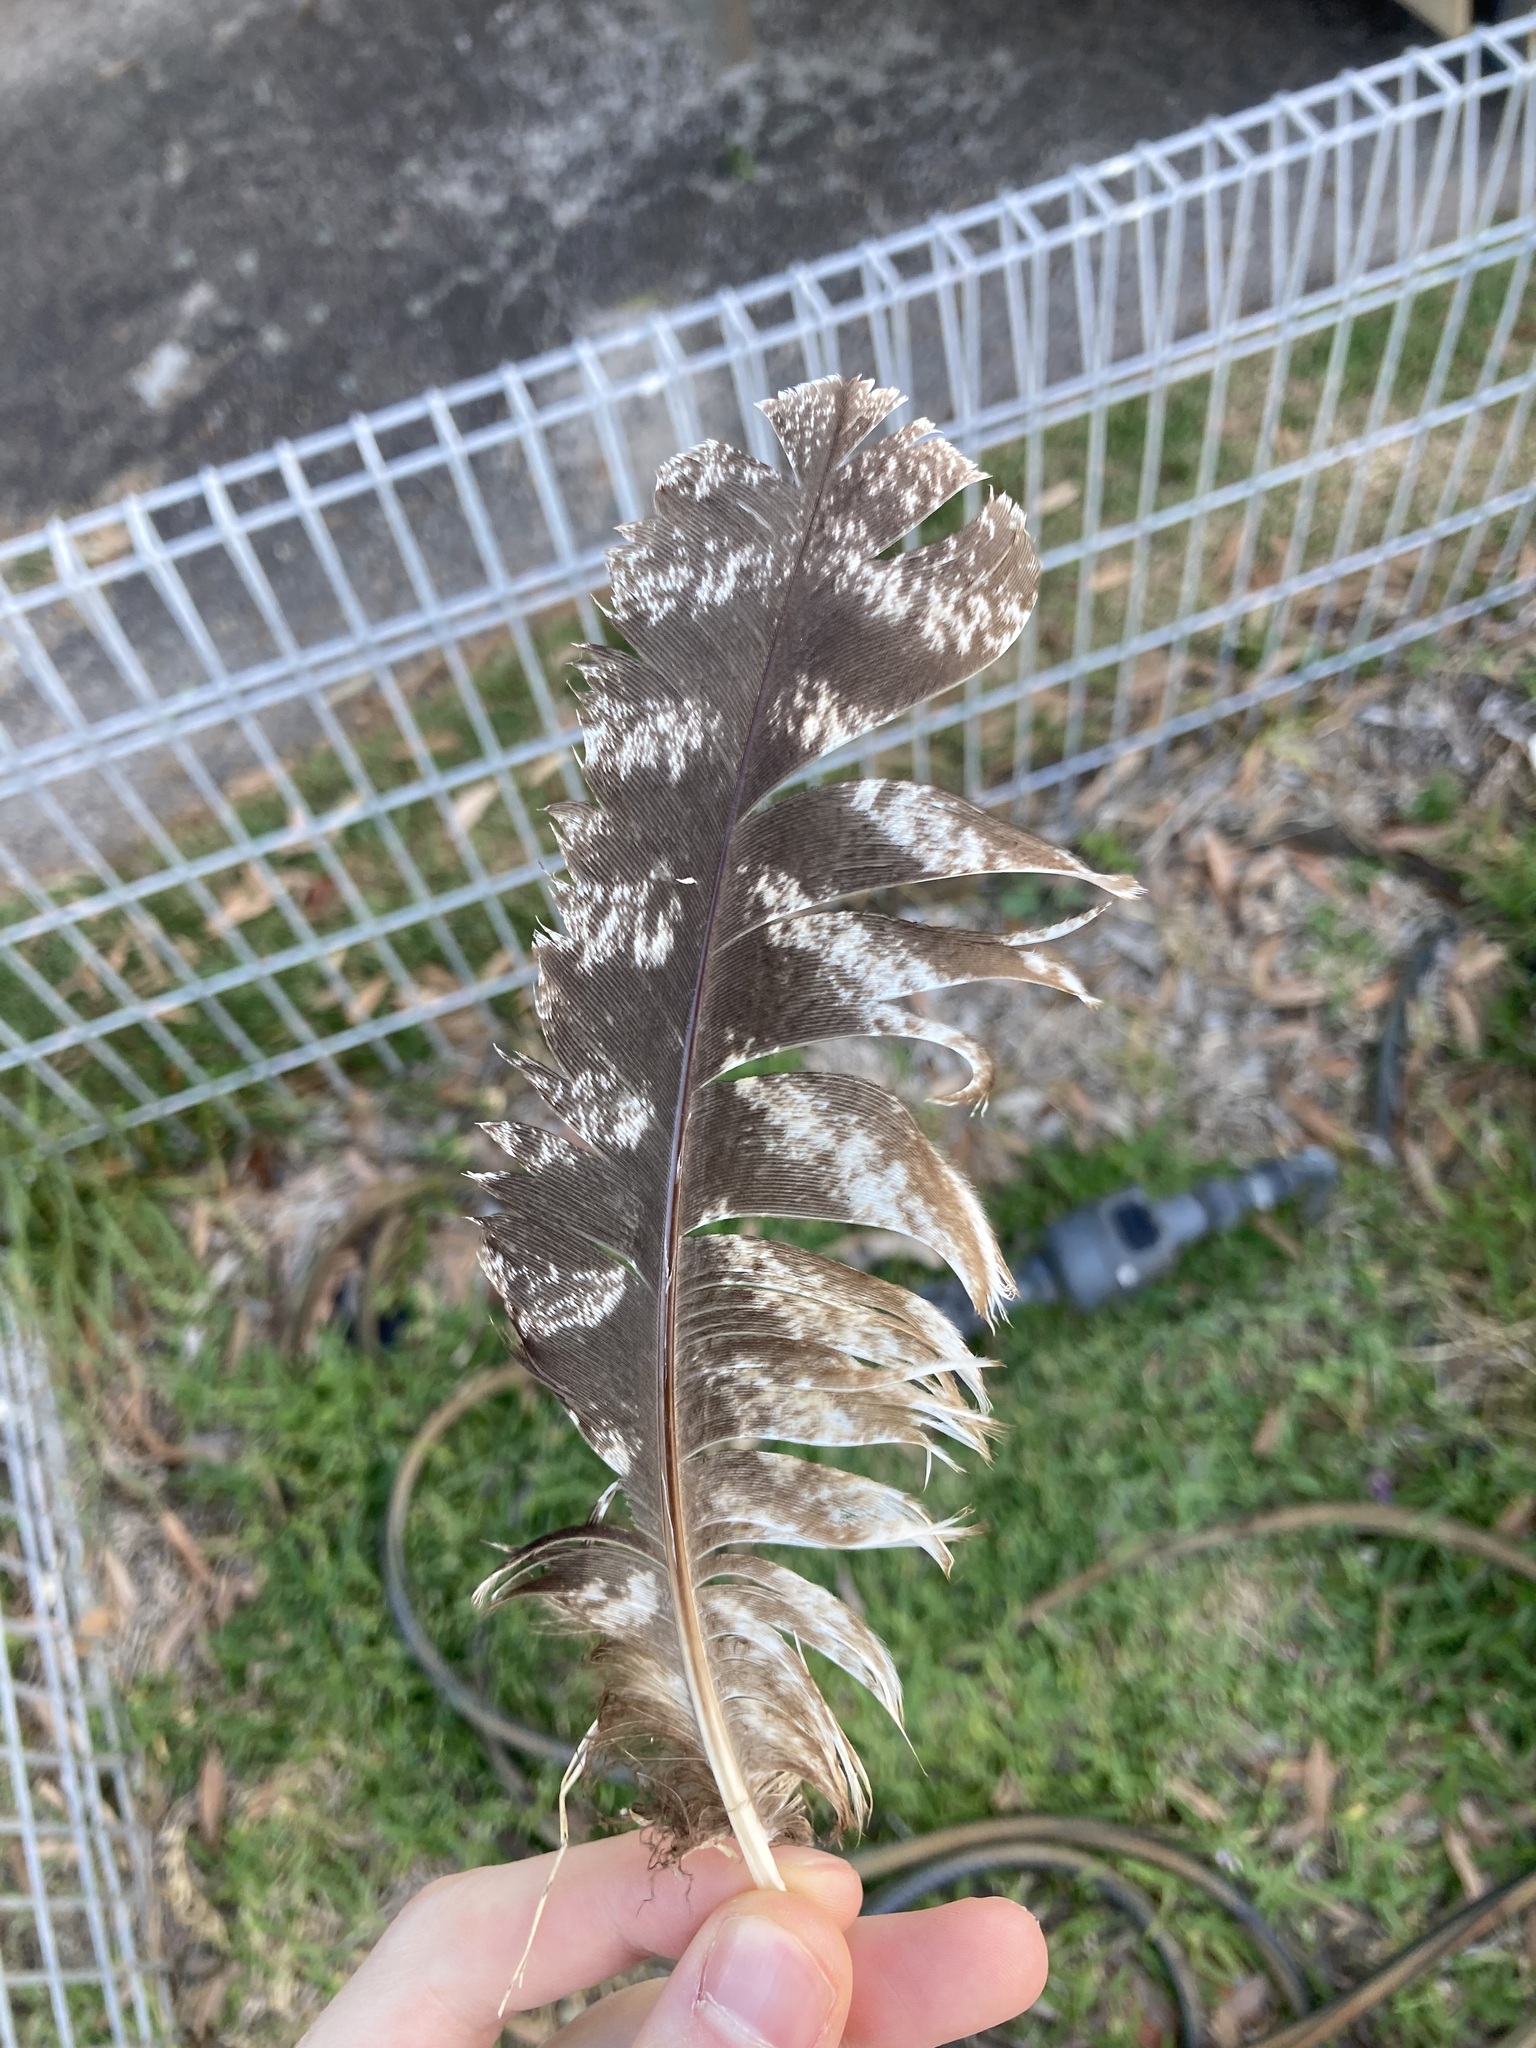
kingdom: Animalia
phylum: Chordata
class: Aves
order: Caprimulgiformes
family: Podargidae
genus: Podargus
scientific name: Podargus strigoides
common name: Tawny frogmouth
